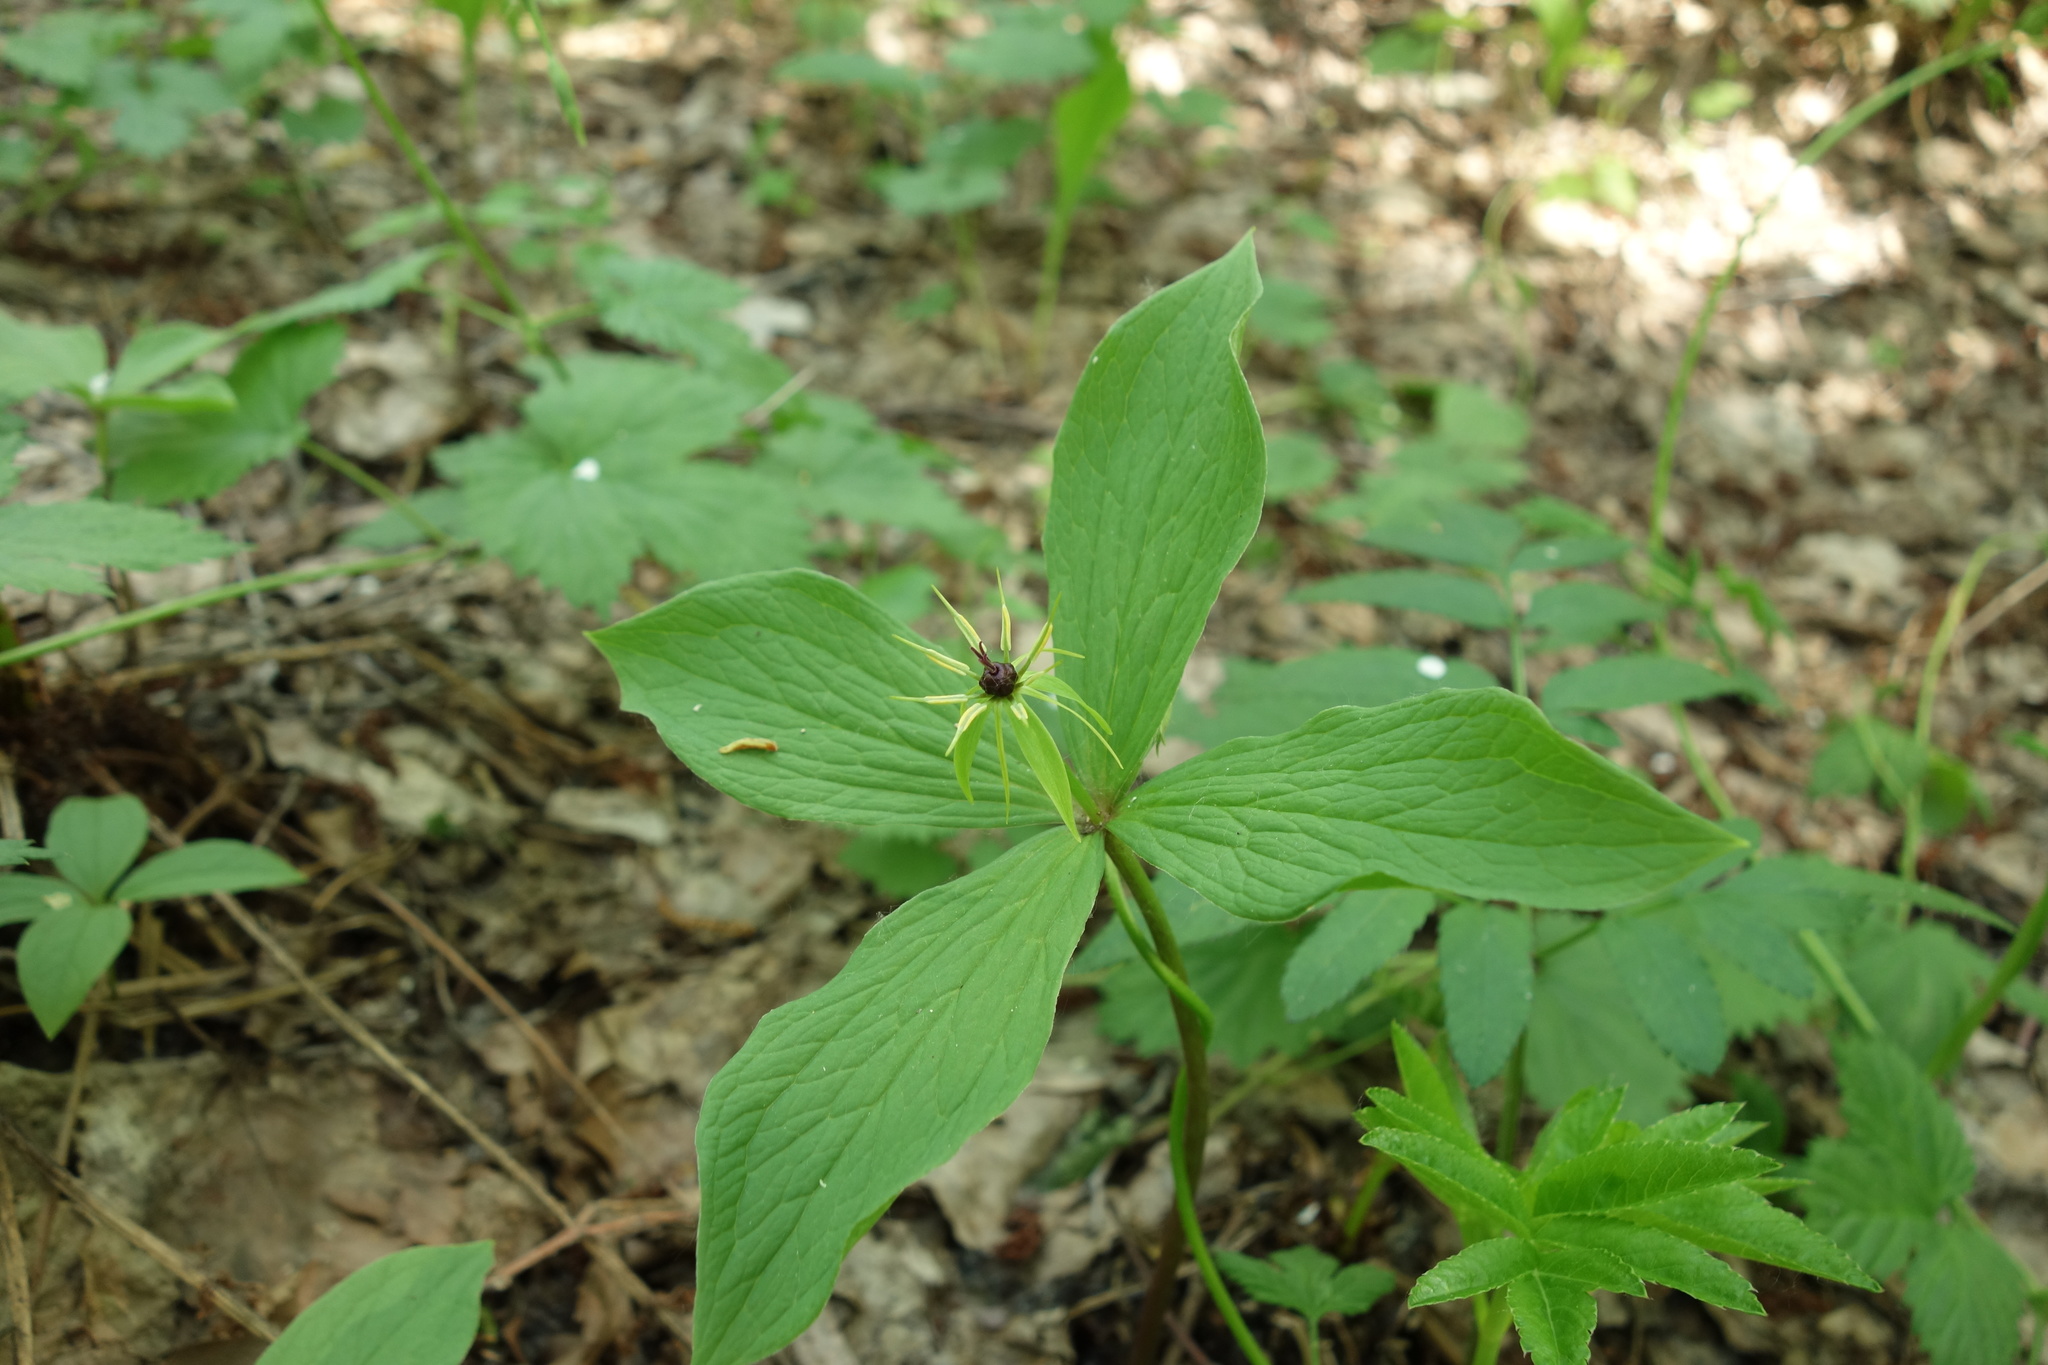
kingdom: Plantae
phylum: Tracheophyta
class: Liliopsida
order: Liliales
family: Melanthiaceae
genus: Paris
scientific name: Paris quadrifolia
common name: Herb-paris
